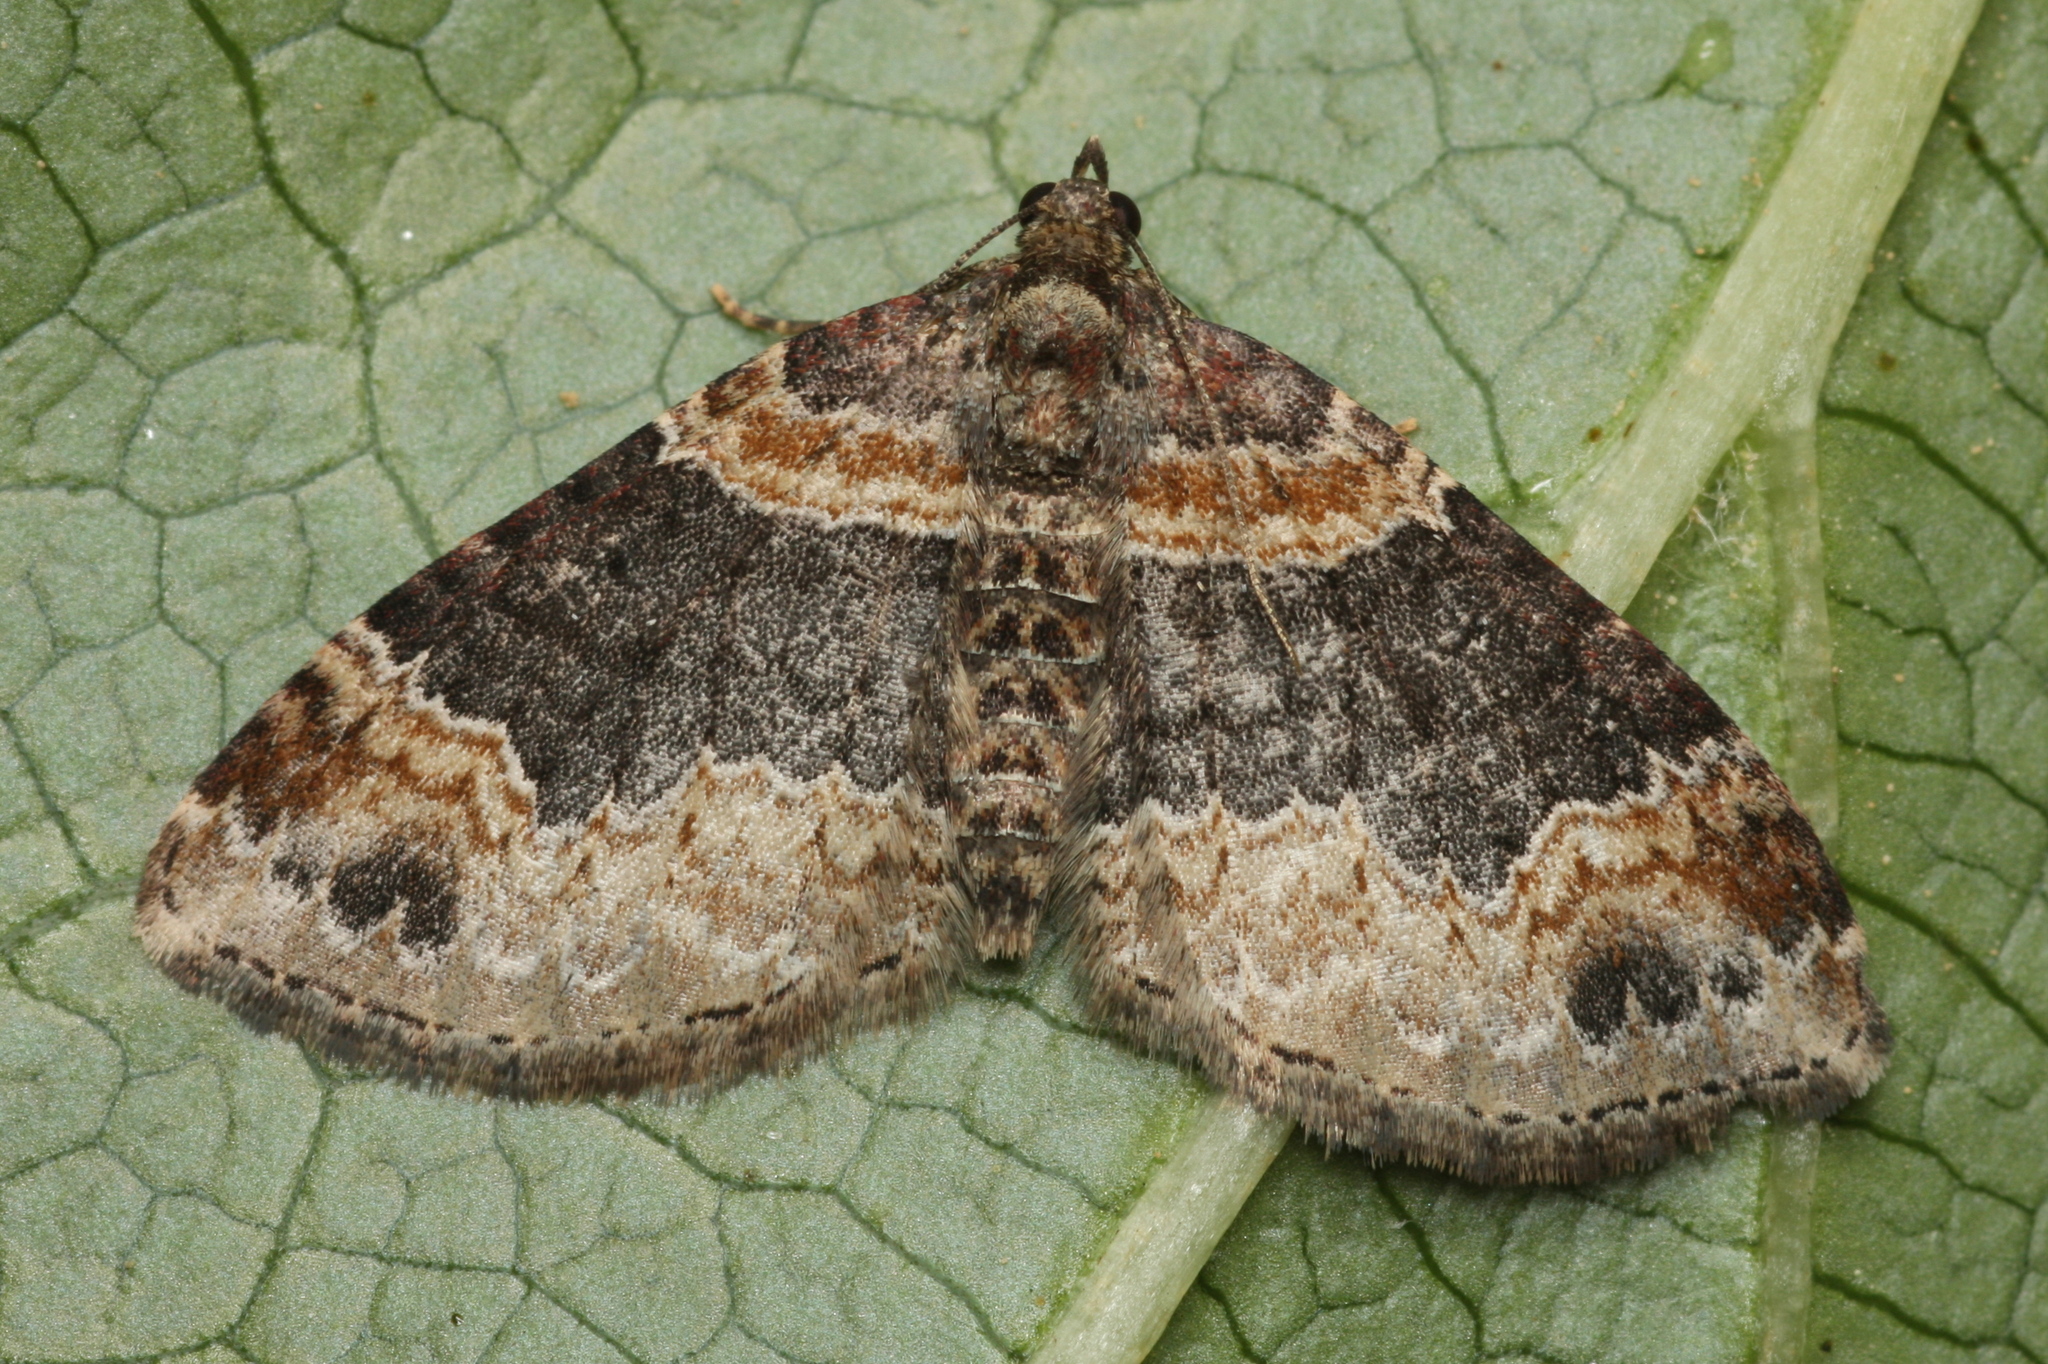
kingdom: Animalia
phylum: Arthropoda
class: Insecta
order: Lepidoptera
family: Geometridae
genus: Xanthorhoe
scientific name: Xanthorhoe ferrugata
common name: Dark-barred twin-spot carpet
